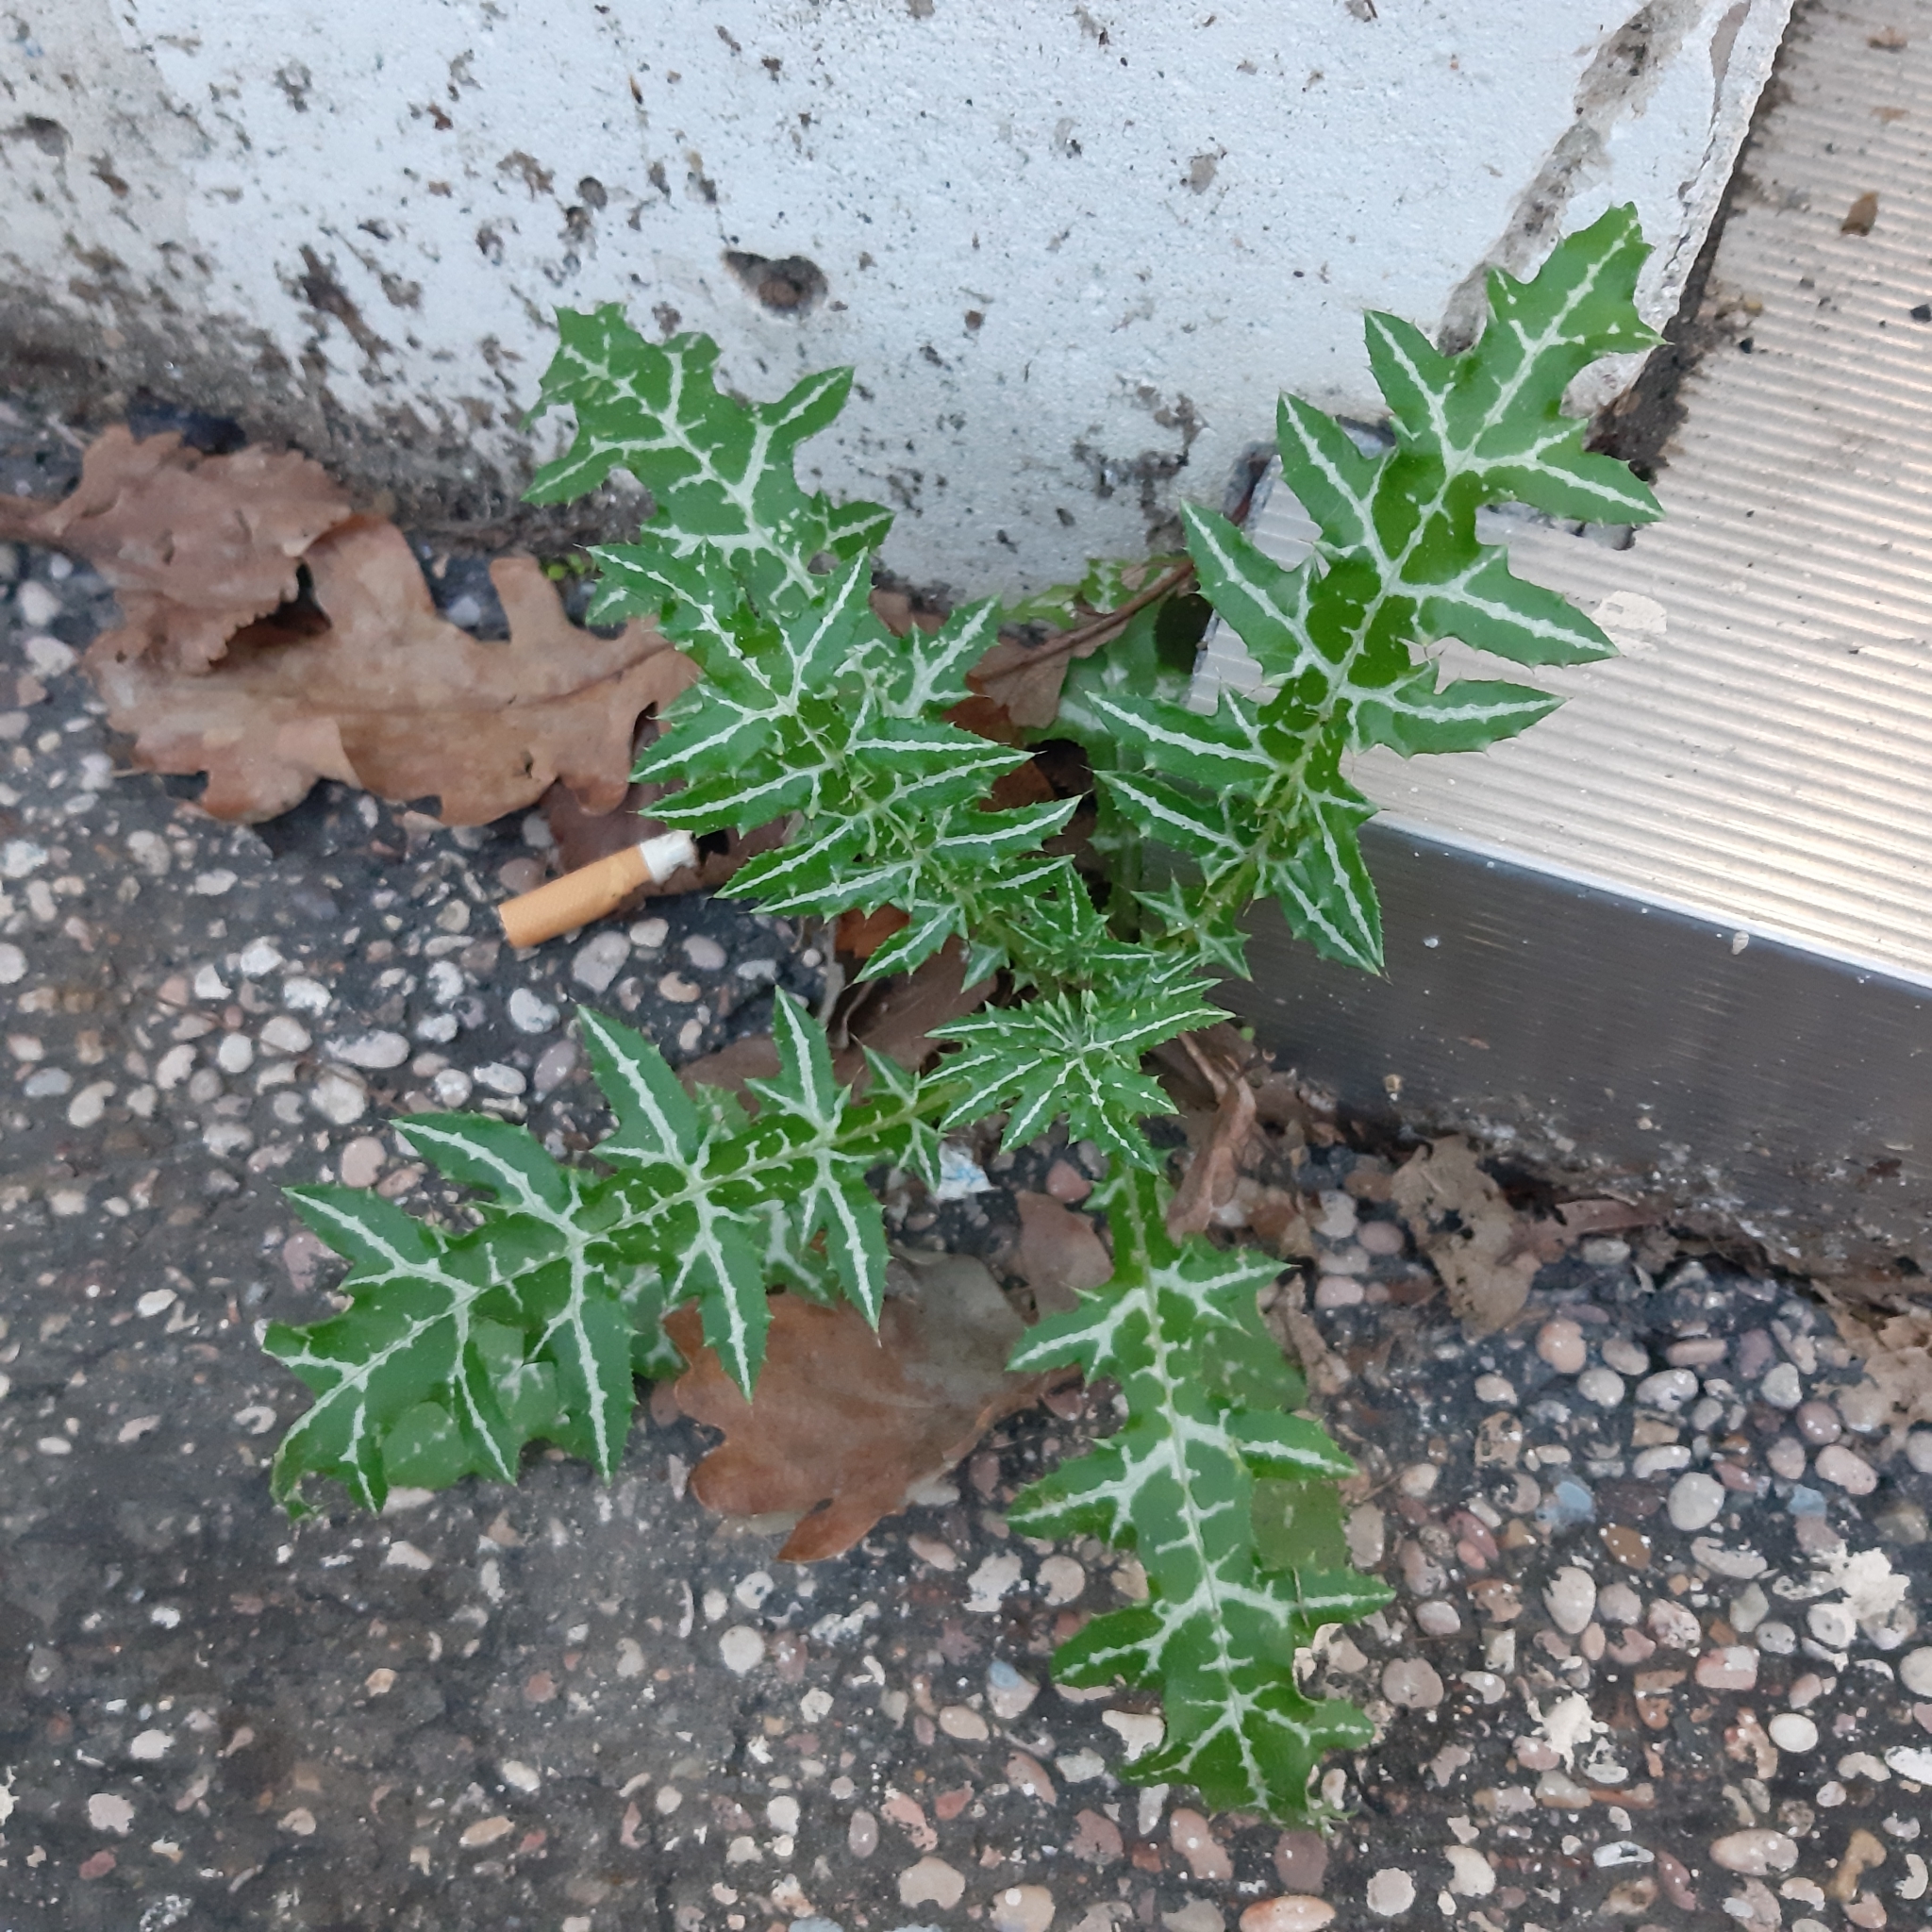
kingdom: Plantae
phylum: Tracheophyta
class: Magnoliopsida
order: Asterales
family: Asteraceae
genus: Galactites
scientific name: Galactites tomentosa
